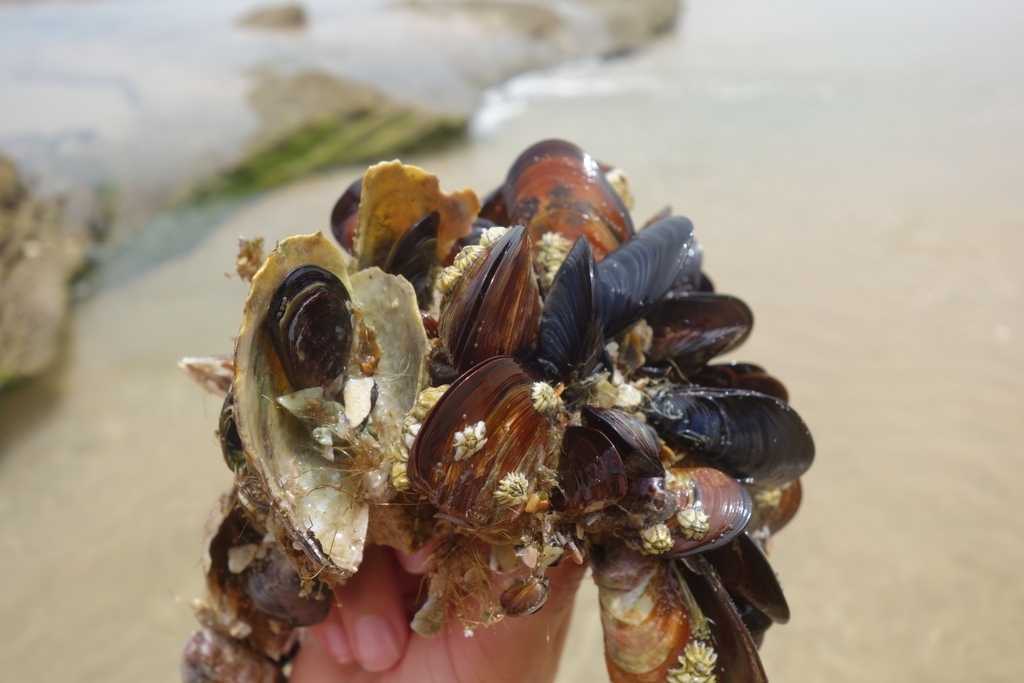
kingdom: Animalia
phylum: Mollusca
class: Bivalvia
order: Mytilida
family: Mytilidae
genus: Mytilus
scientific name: Mytilus galloprovincialis
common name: Mediterranean mussel
